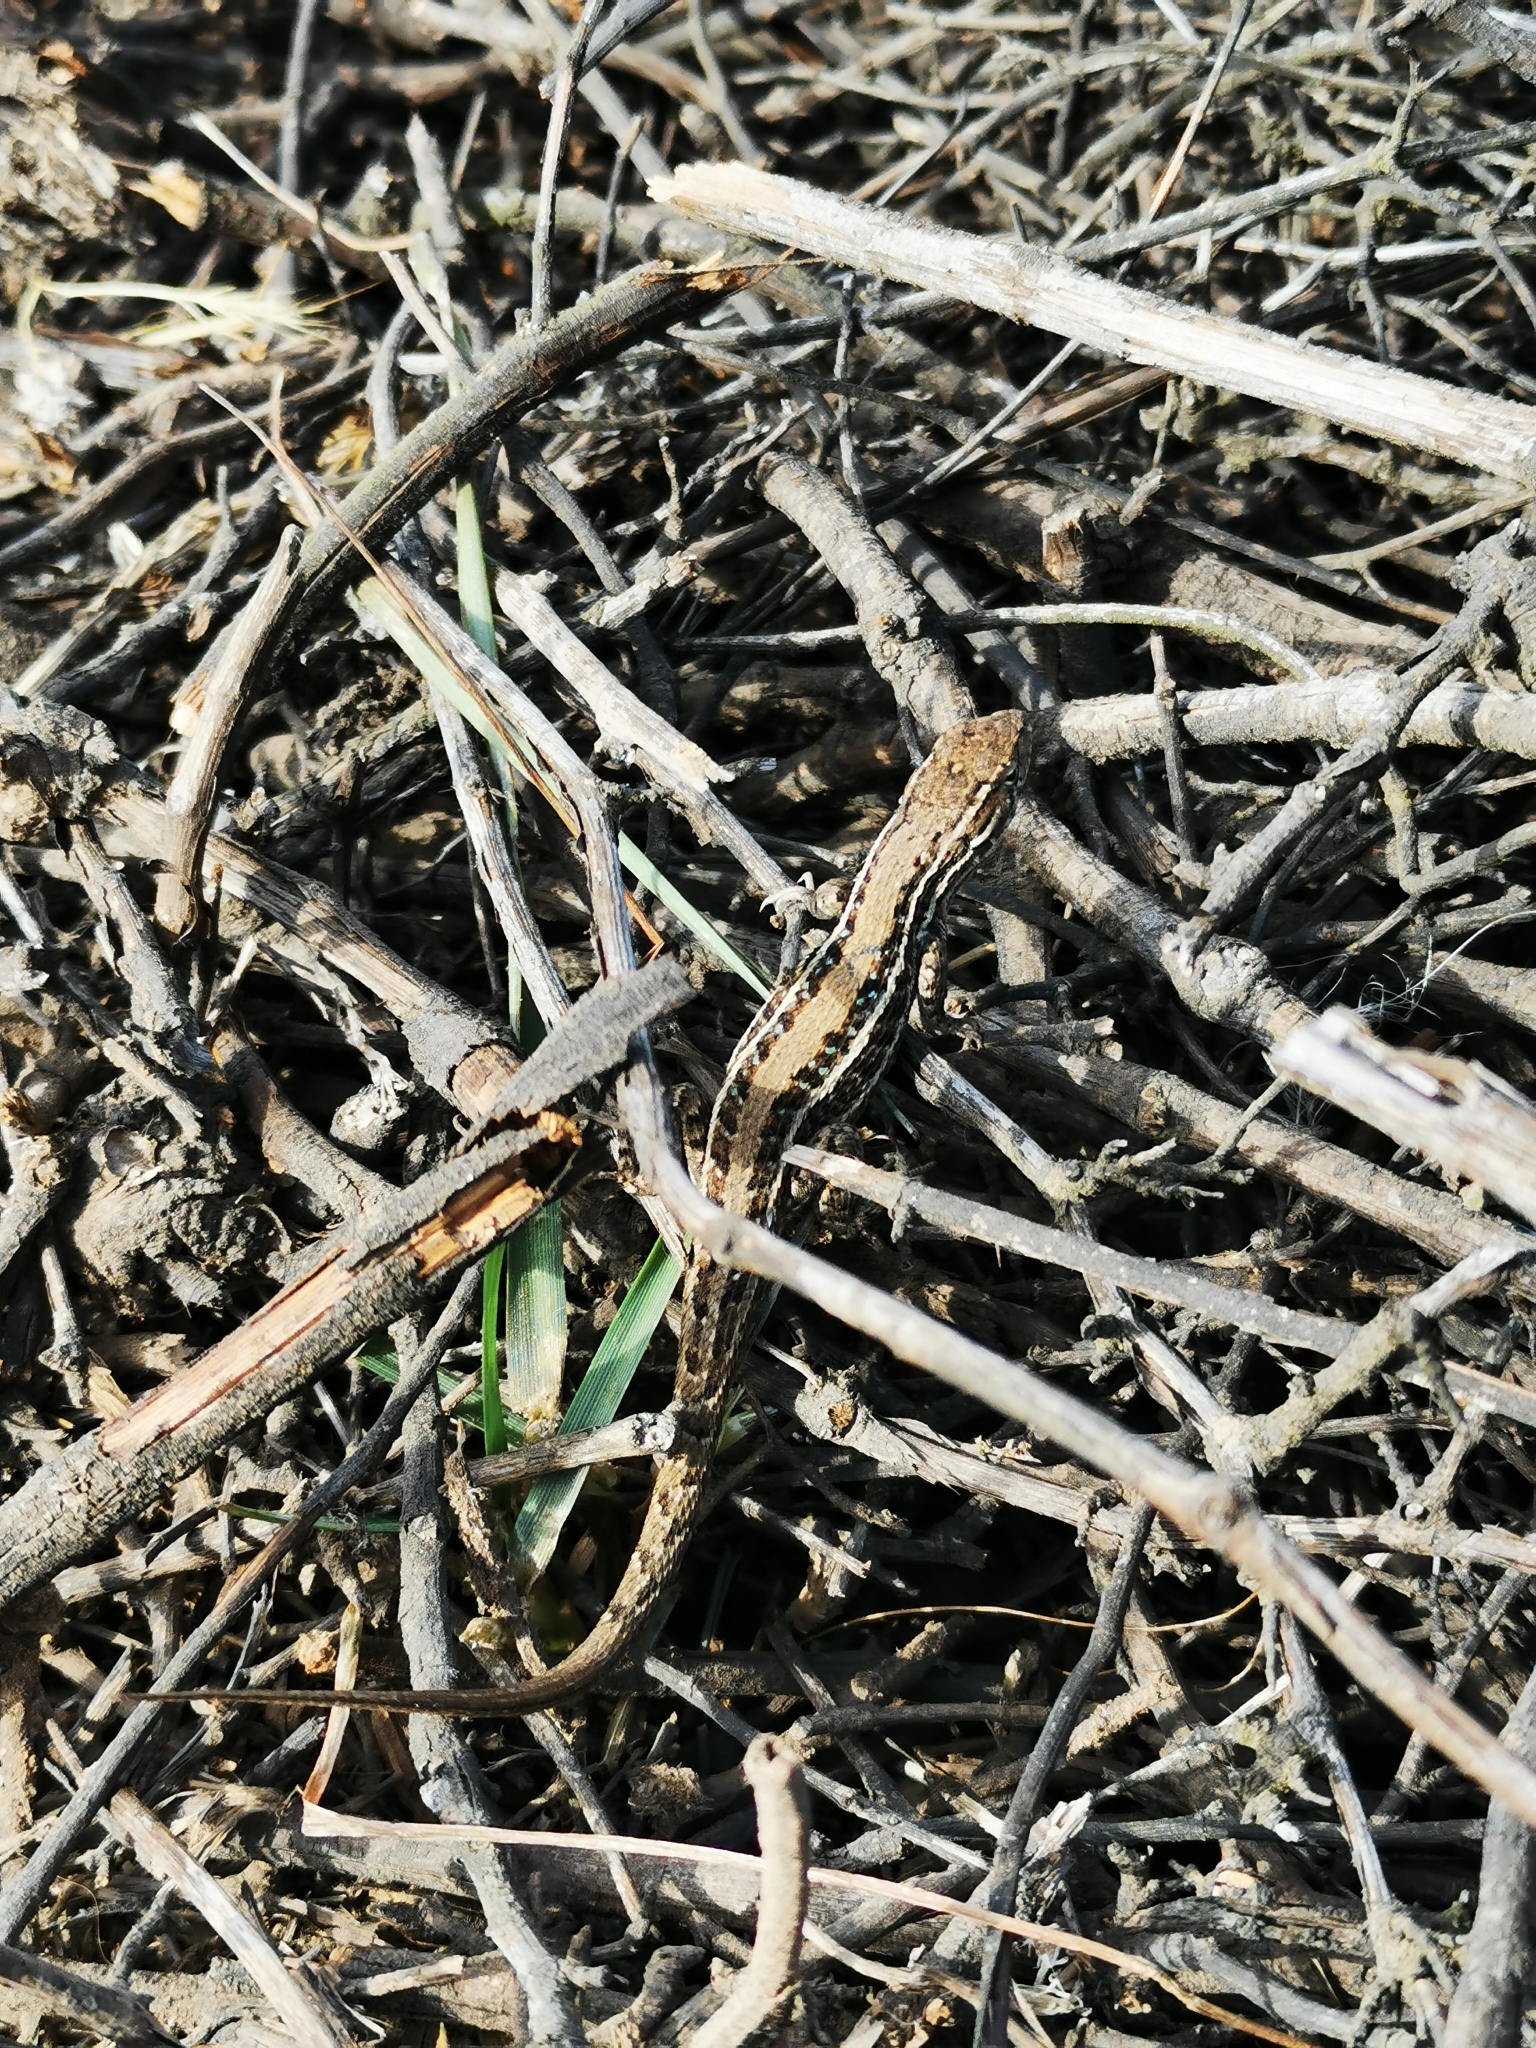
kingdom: Animalia
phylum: Chordata
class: Squamata
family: Liolaemidae
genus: Liolaemus
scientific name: Liolaemus lemniscatus
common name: Wreath tree iguana
